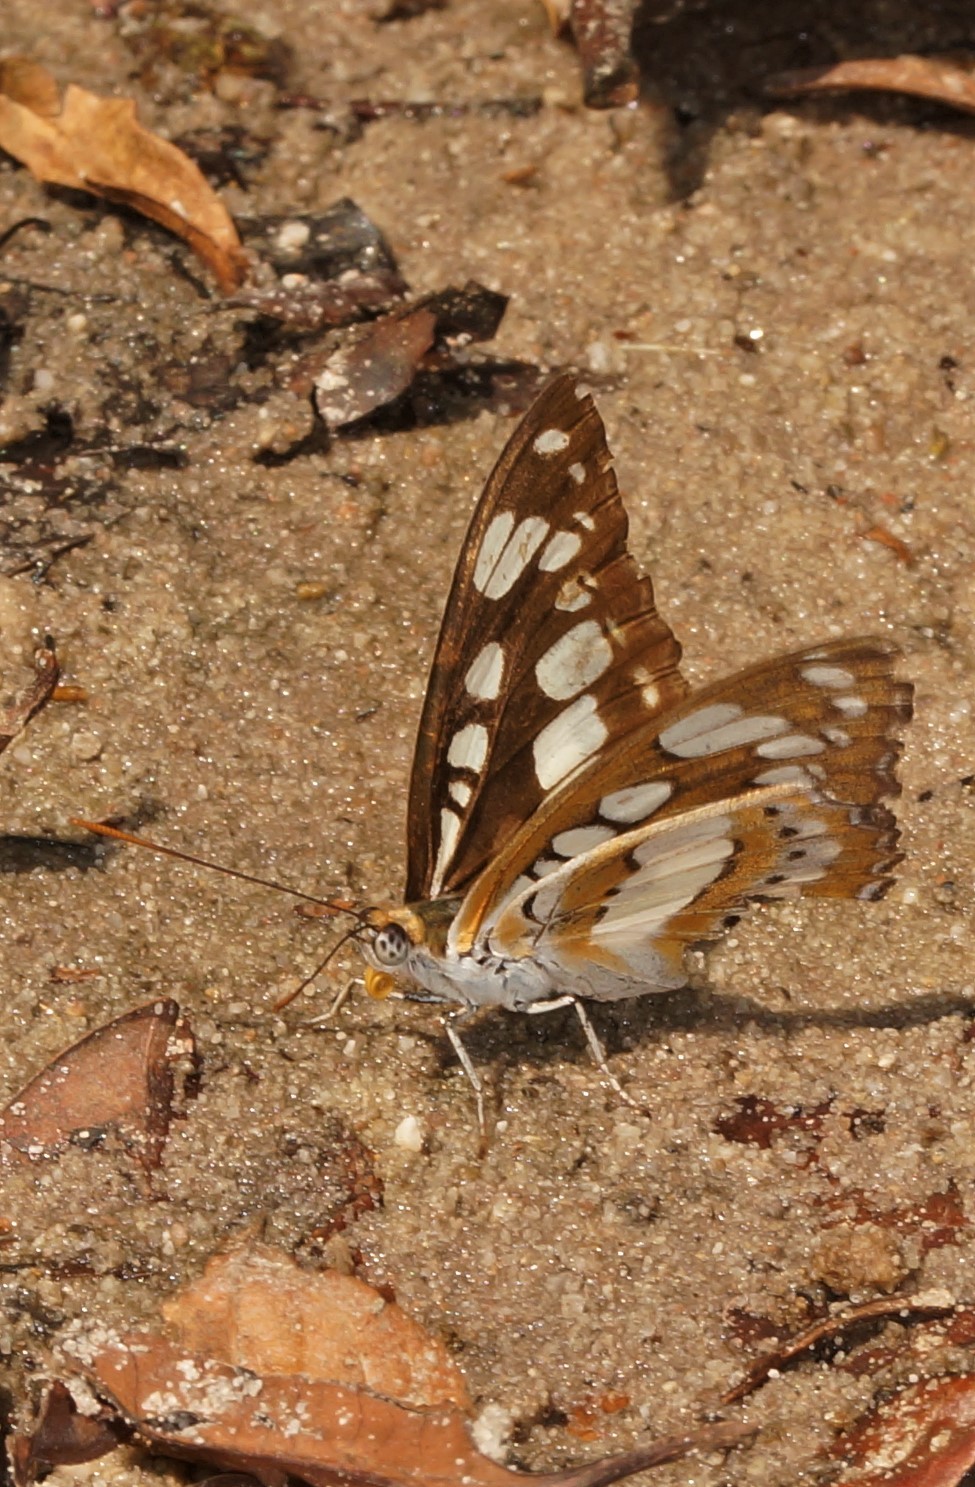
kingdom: Animalia
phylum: Arthropoda
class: Insecta
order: Lepidoptera
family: Nymphalidae
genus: Parathyma
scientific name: Parathyma perius
